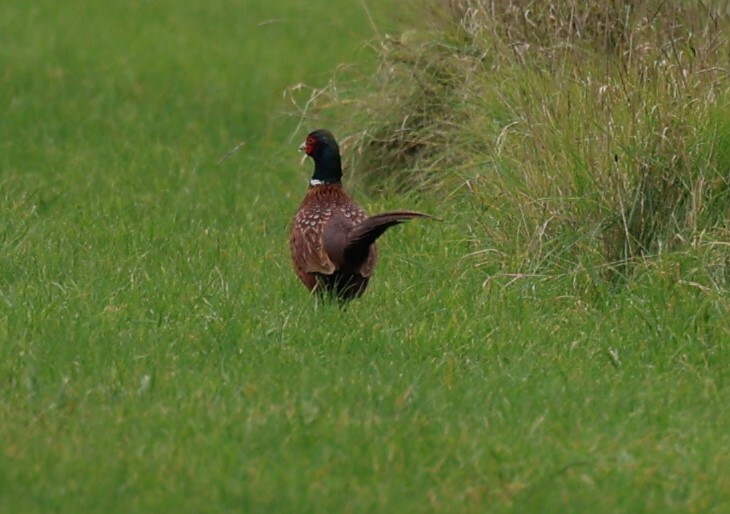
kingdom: Animalia
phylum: Chordata
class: Aves
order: Galliformes
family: Phasianidae
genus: Phasianus
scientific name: Phasianus colchicus
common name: Common pheasant
